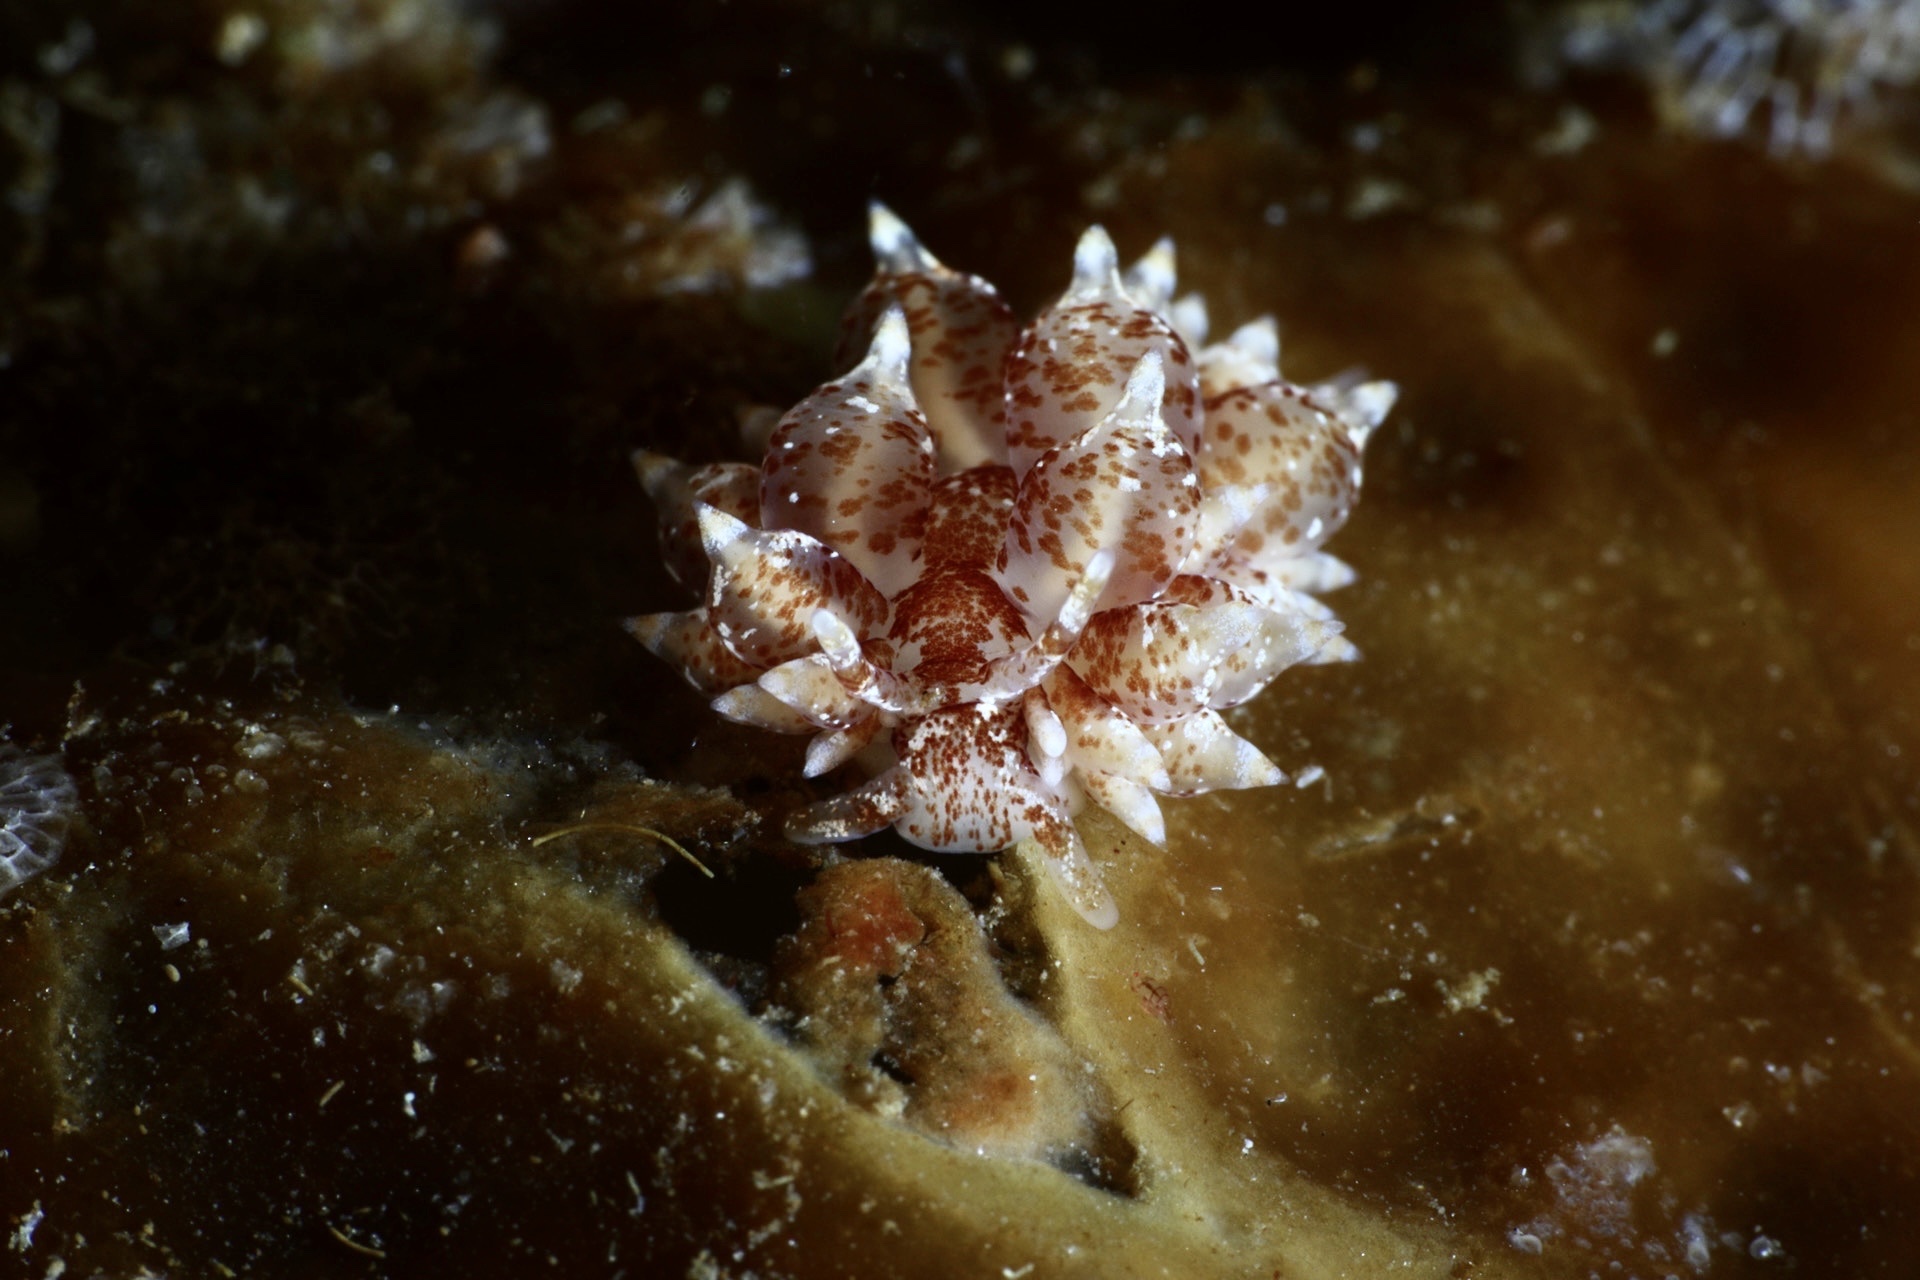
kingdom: Animalia
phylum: Mollusca
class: Gastropoda
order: Nudibranchia
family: Eubranchidae
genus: Amphorina
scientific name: Amphorina pallida
